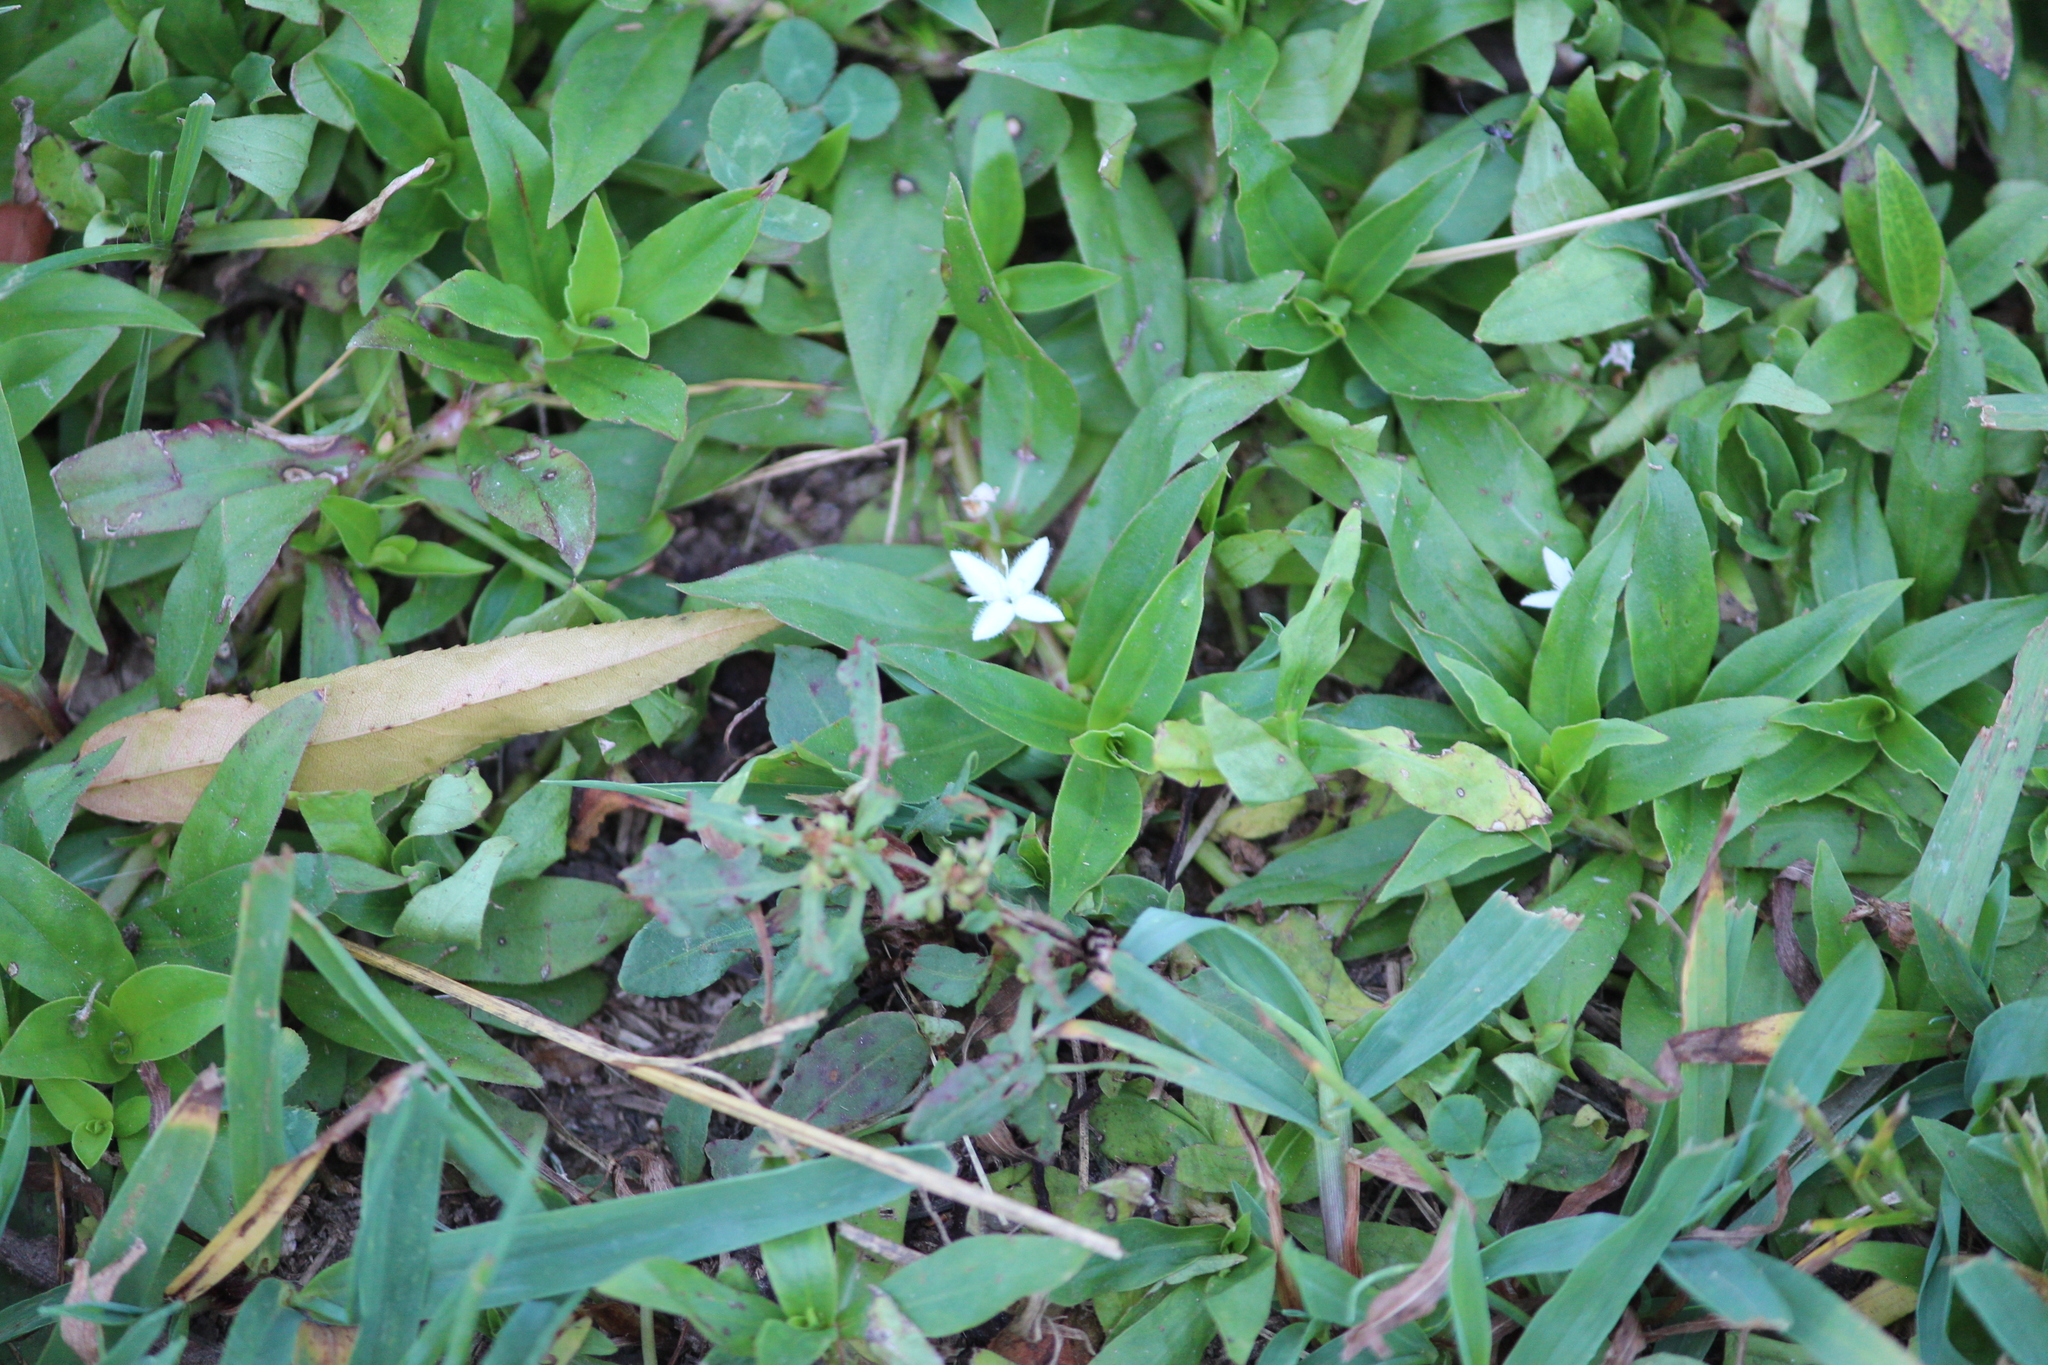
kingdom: Plantae
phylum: Tracheophyta
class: Magnoliopsida
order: Gentianales
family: Rubiaceae
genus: Diodia
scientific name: Diodia virginiana
